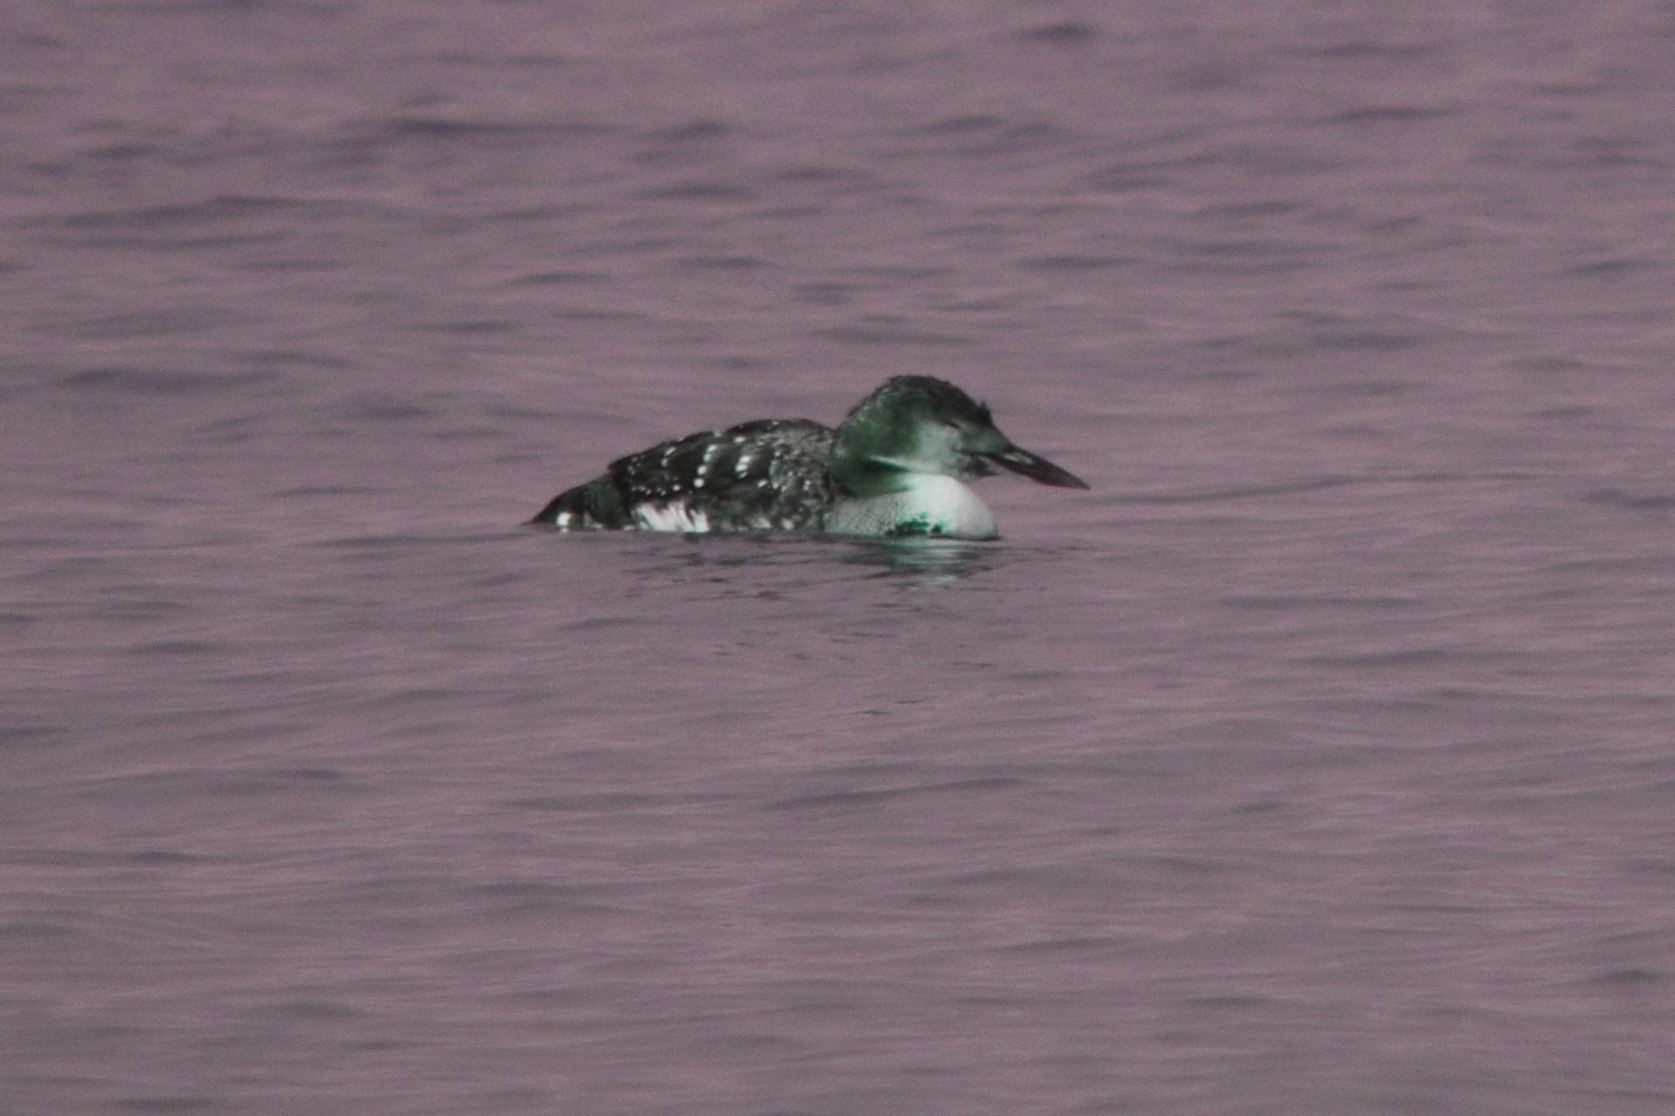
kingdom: Animalia
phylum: Chordata
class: Aves
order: Gaviiformes
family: Gaviidae
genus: Gavia
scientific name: Gavia immer
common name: Common loon
